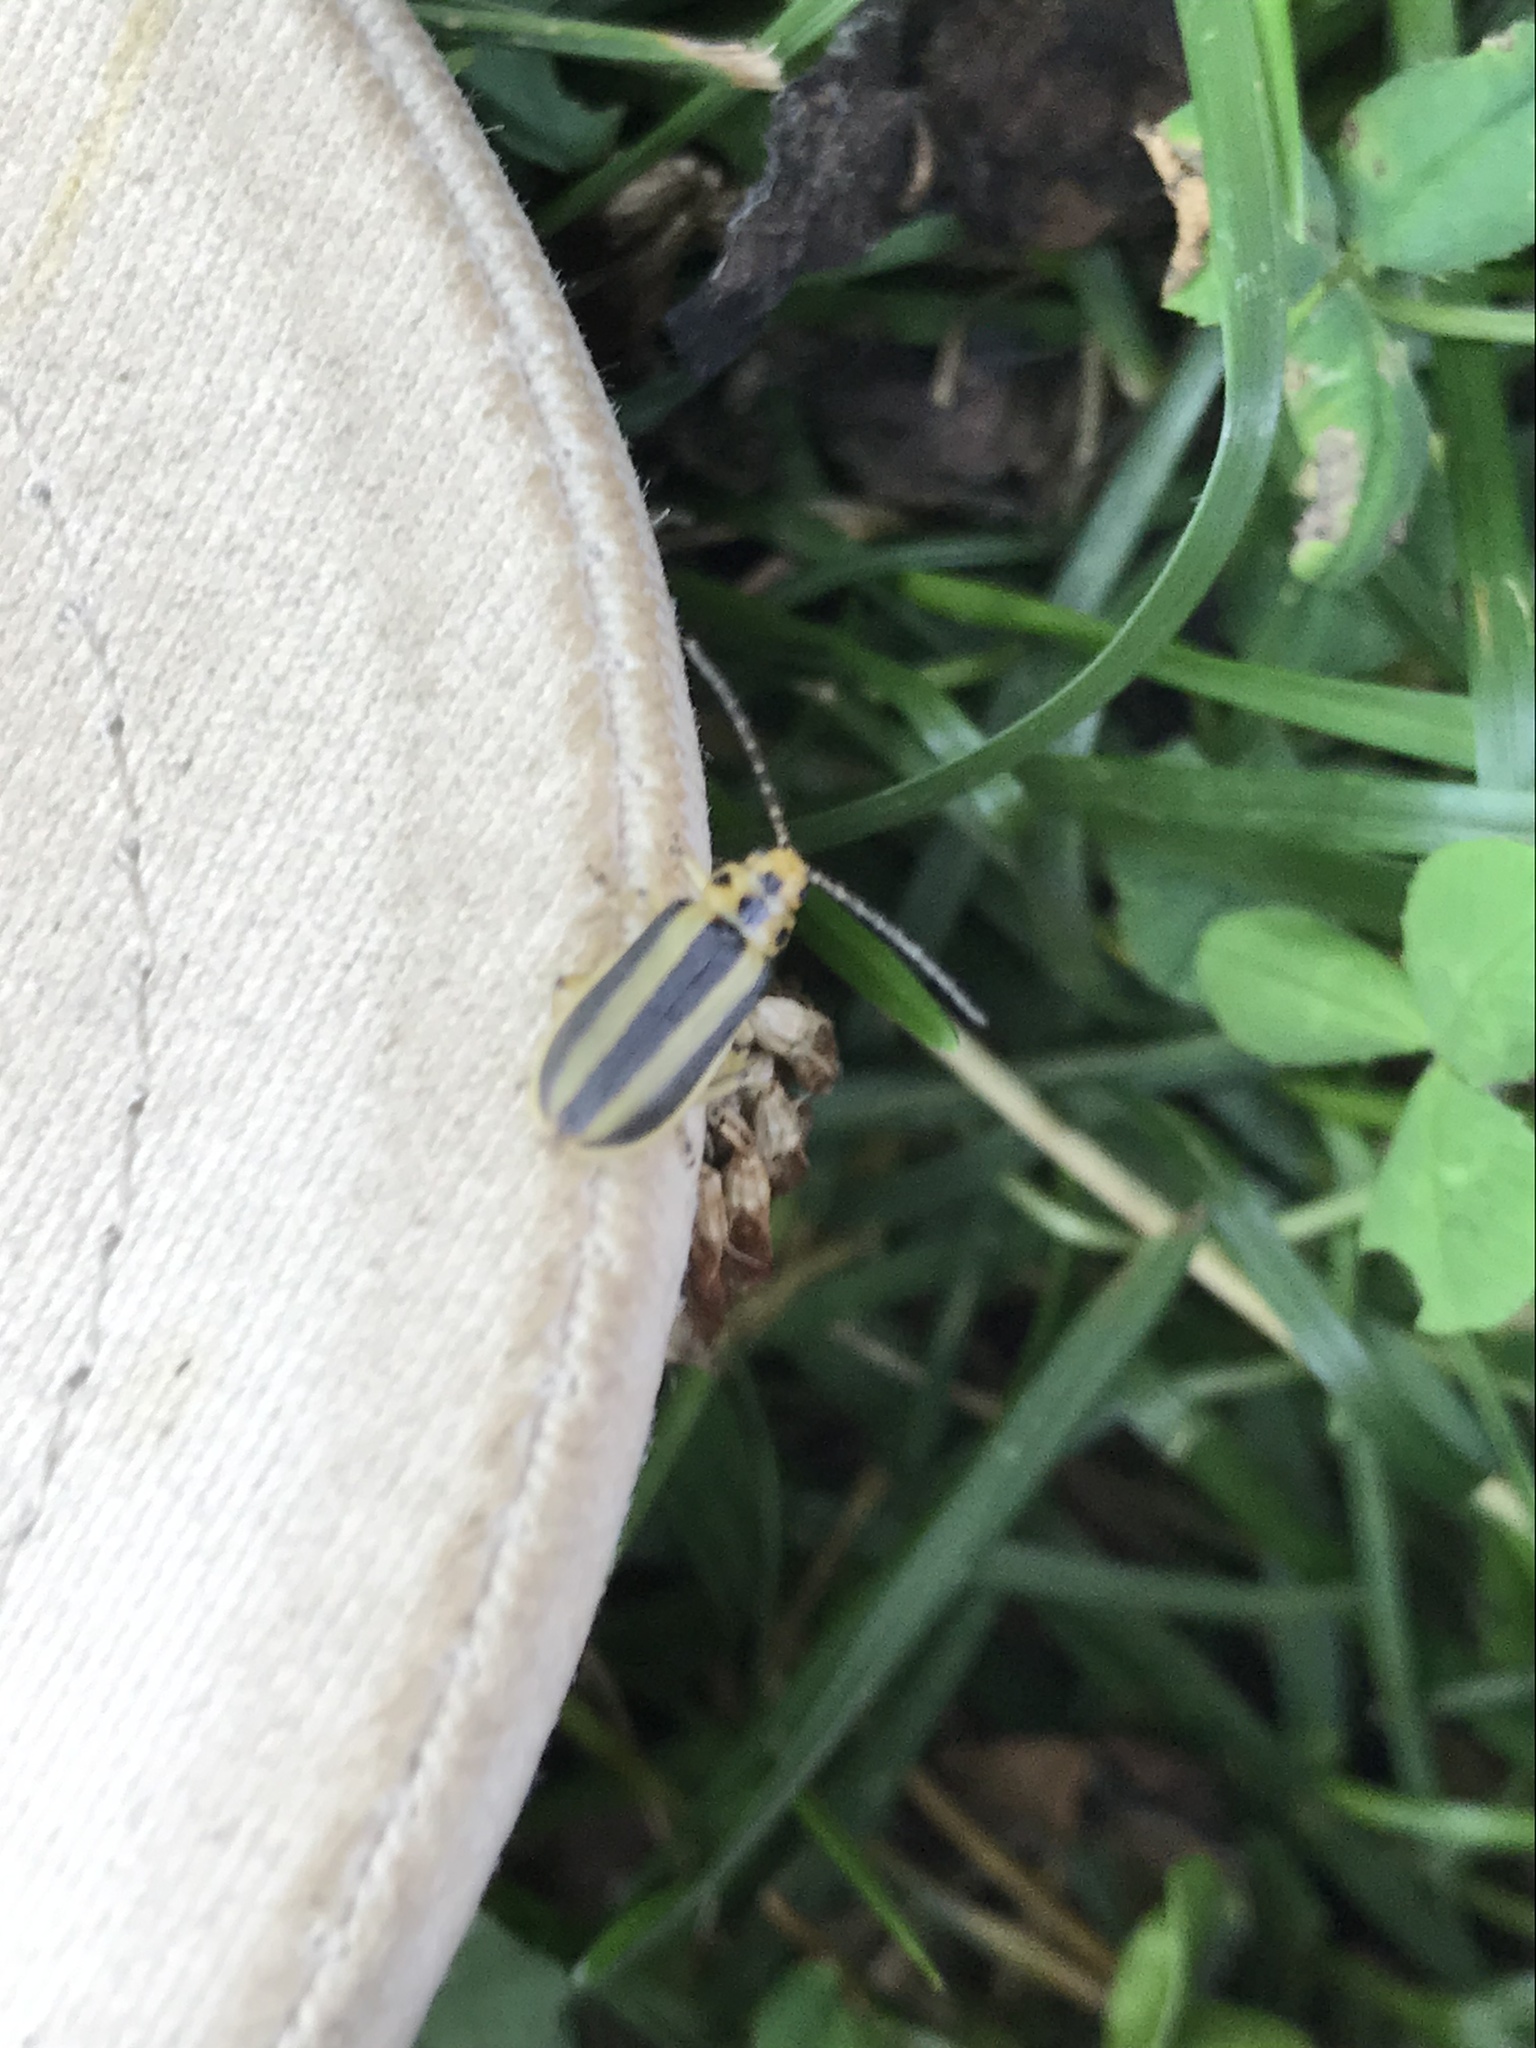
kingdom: Animalia
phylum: Arthropoda
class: Insecta
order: Coleoptera
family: Chrysomelidae
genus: Trirhabda
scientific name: Trirhabda canadensis
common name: Goldenrod leaf beetle
